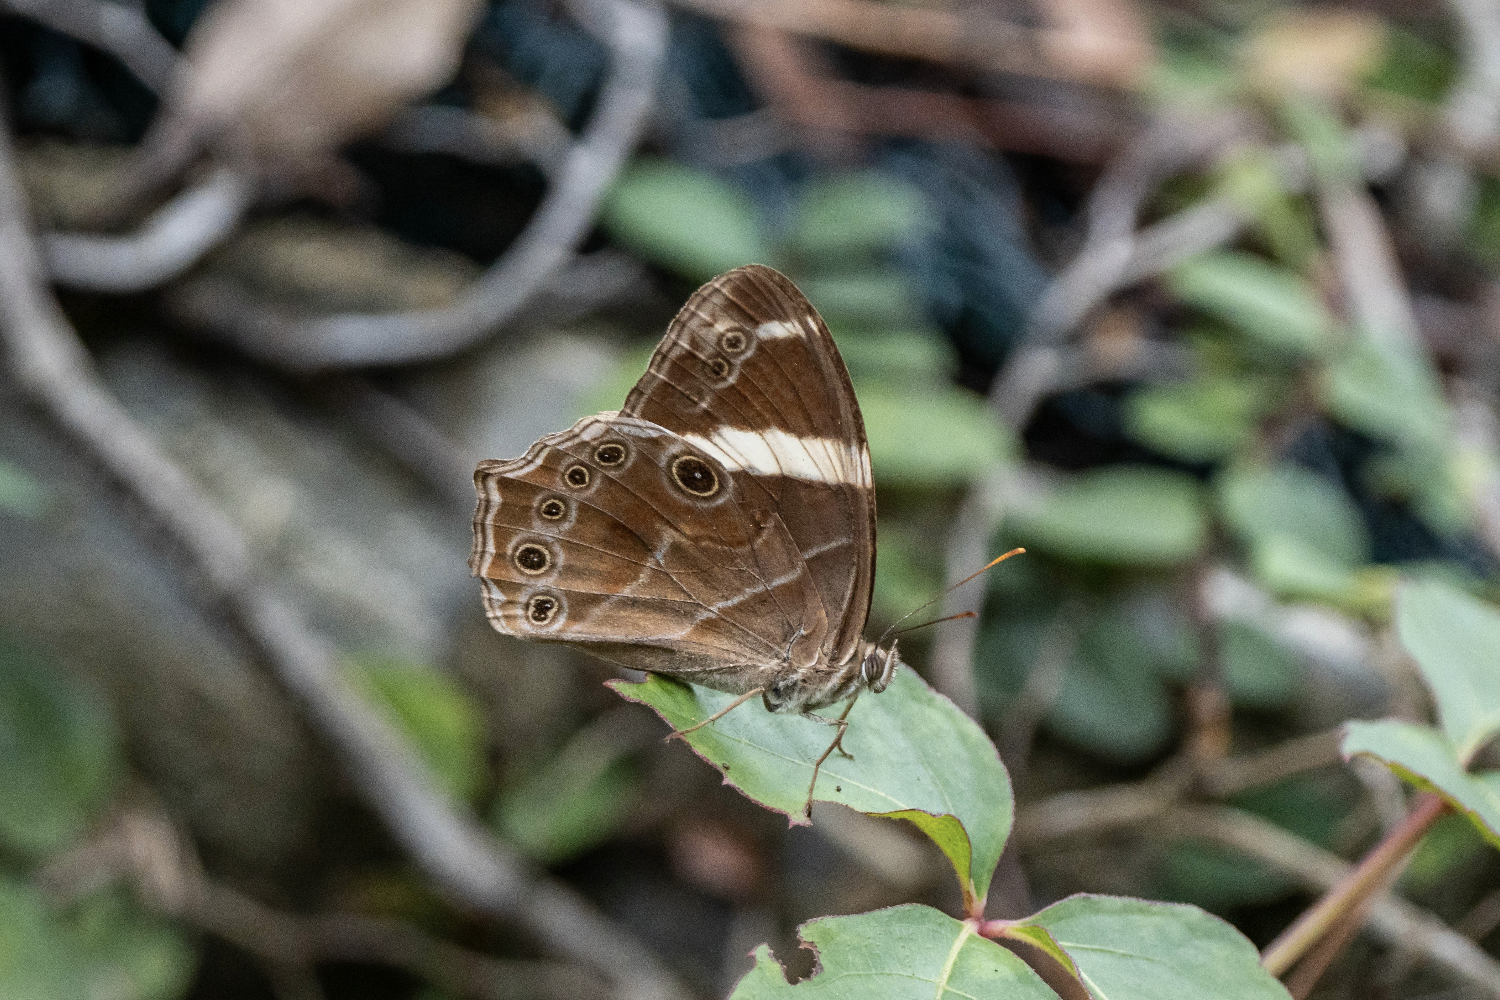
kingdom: Animalia
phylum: Arthropoda
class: Insecta
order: Lepidoptera
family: Nymphalidae
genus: Lethe
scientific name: Lethe confusa
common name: Banded treebrown
